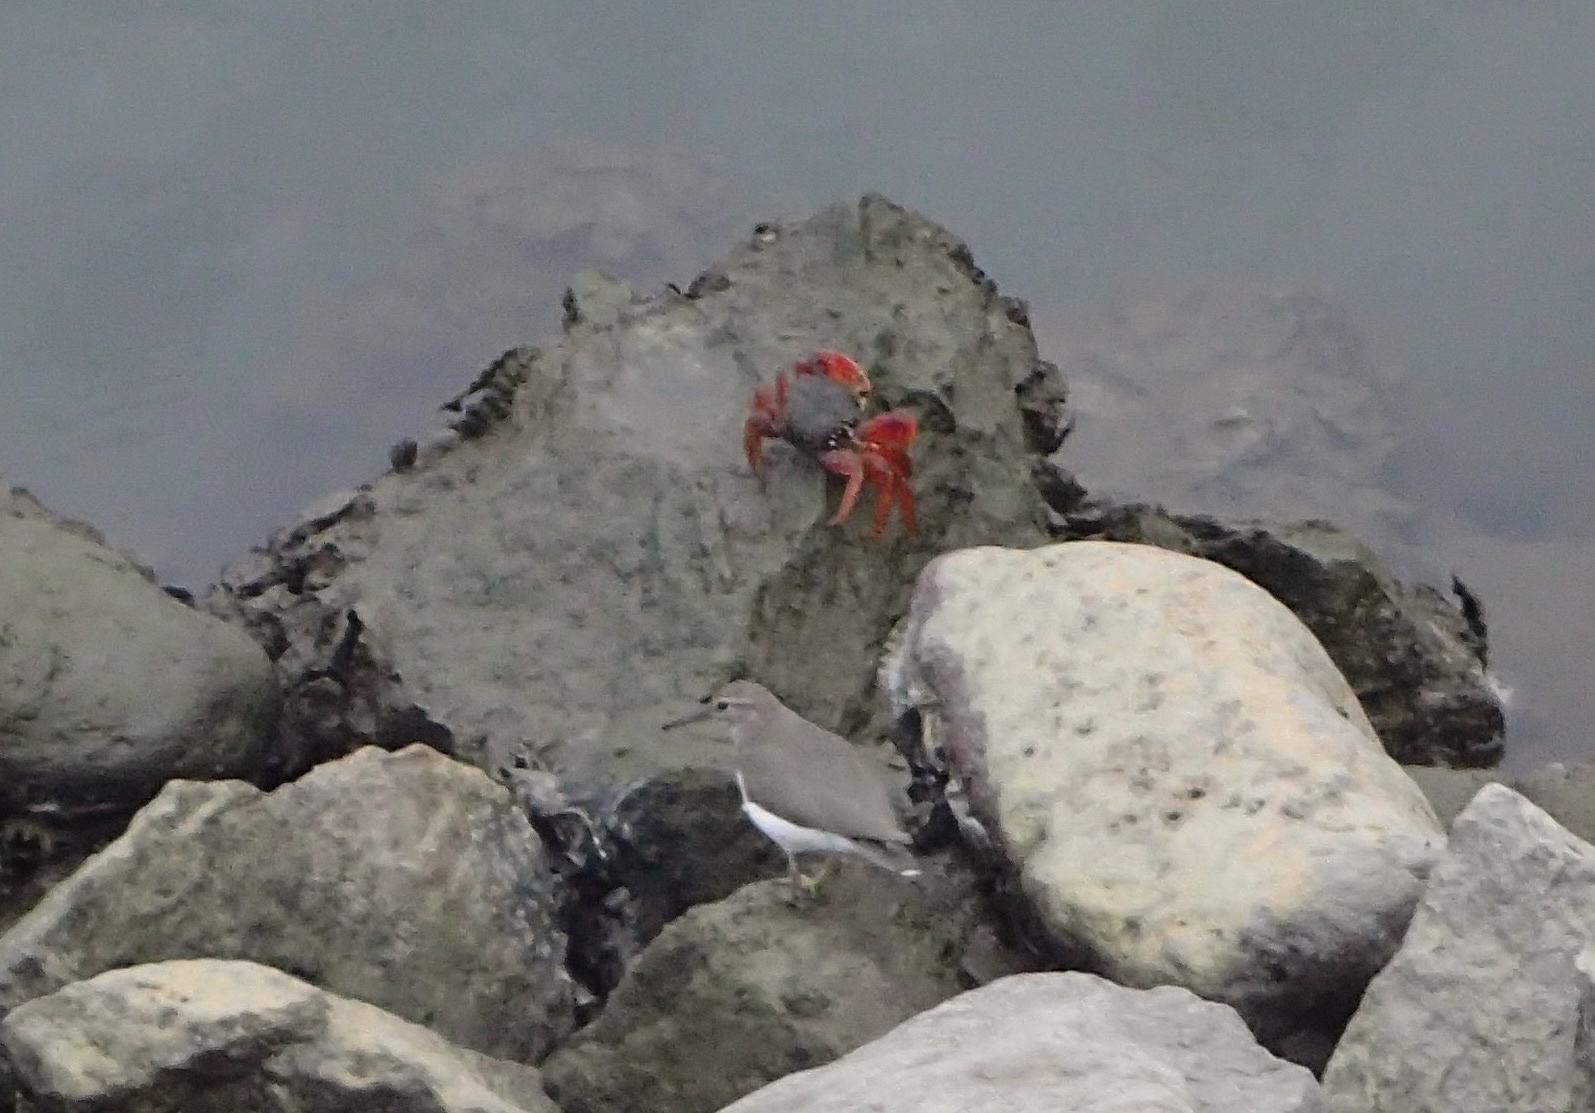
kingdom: Animalia
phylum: Arthropoda
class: Malacostraca
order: Decapoda
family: Grapsidae
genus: Goniopsis
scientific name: Goniopsis pulchra
